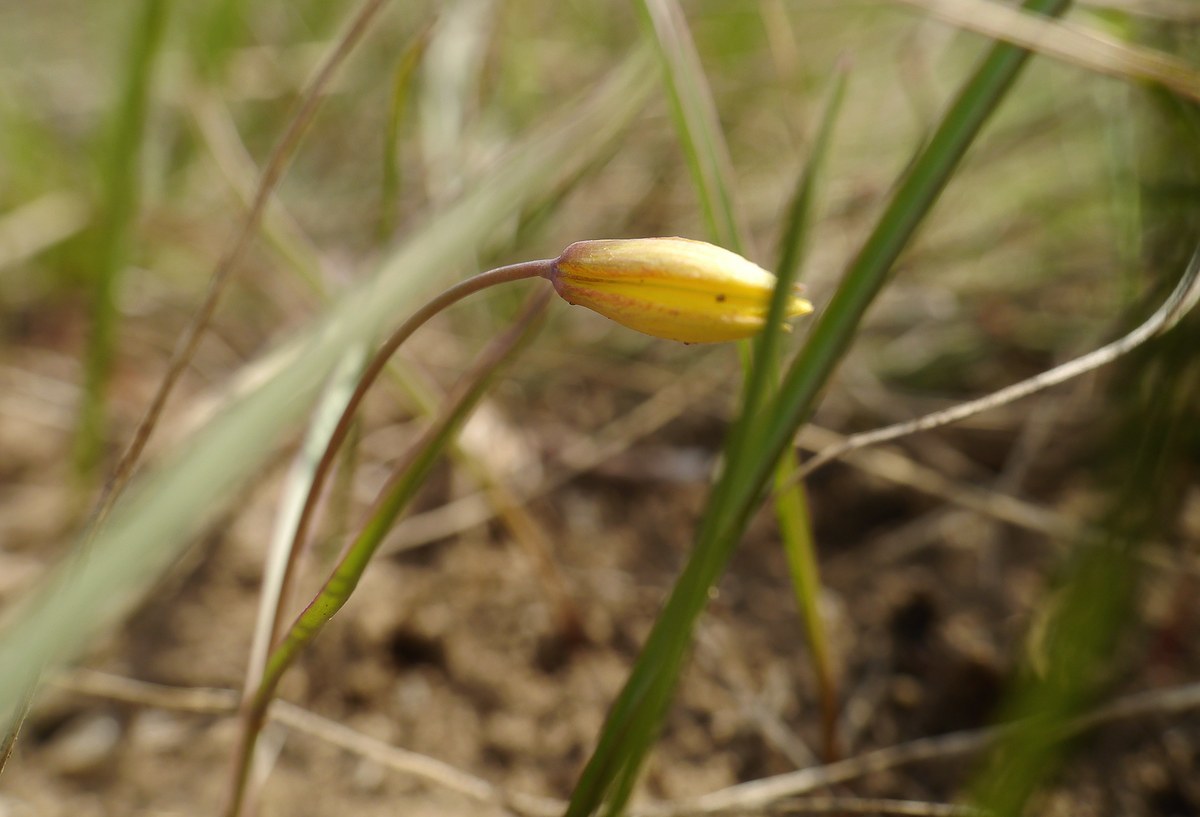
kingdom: Plantae
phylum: Tracheophyta
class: Liliopsida
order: Liliales
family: Liliaceae
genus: Tulipa
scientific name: Tulipa sylvestris
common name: Wild tulip
